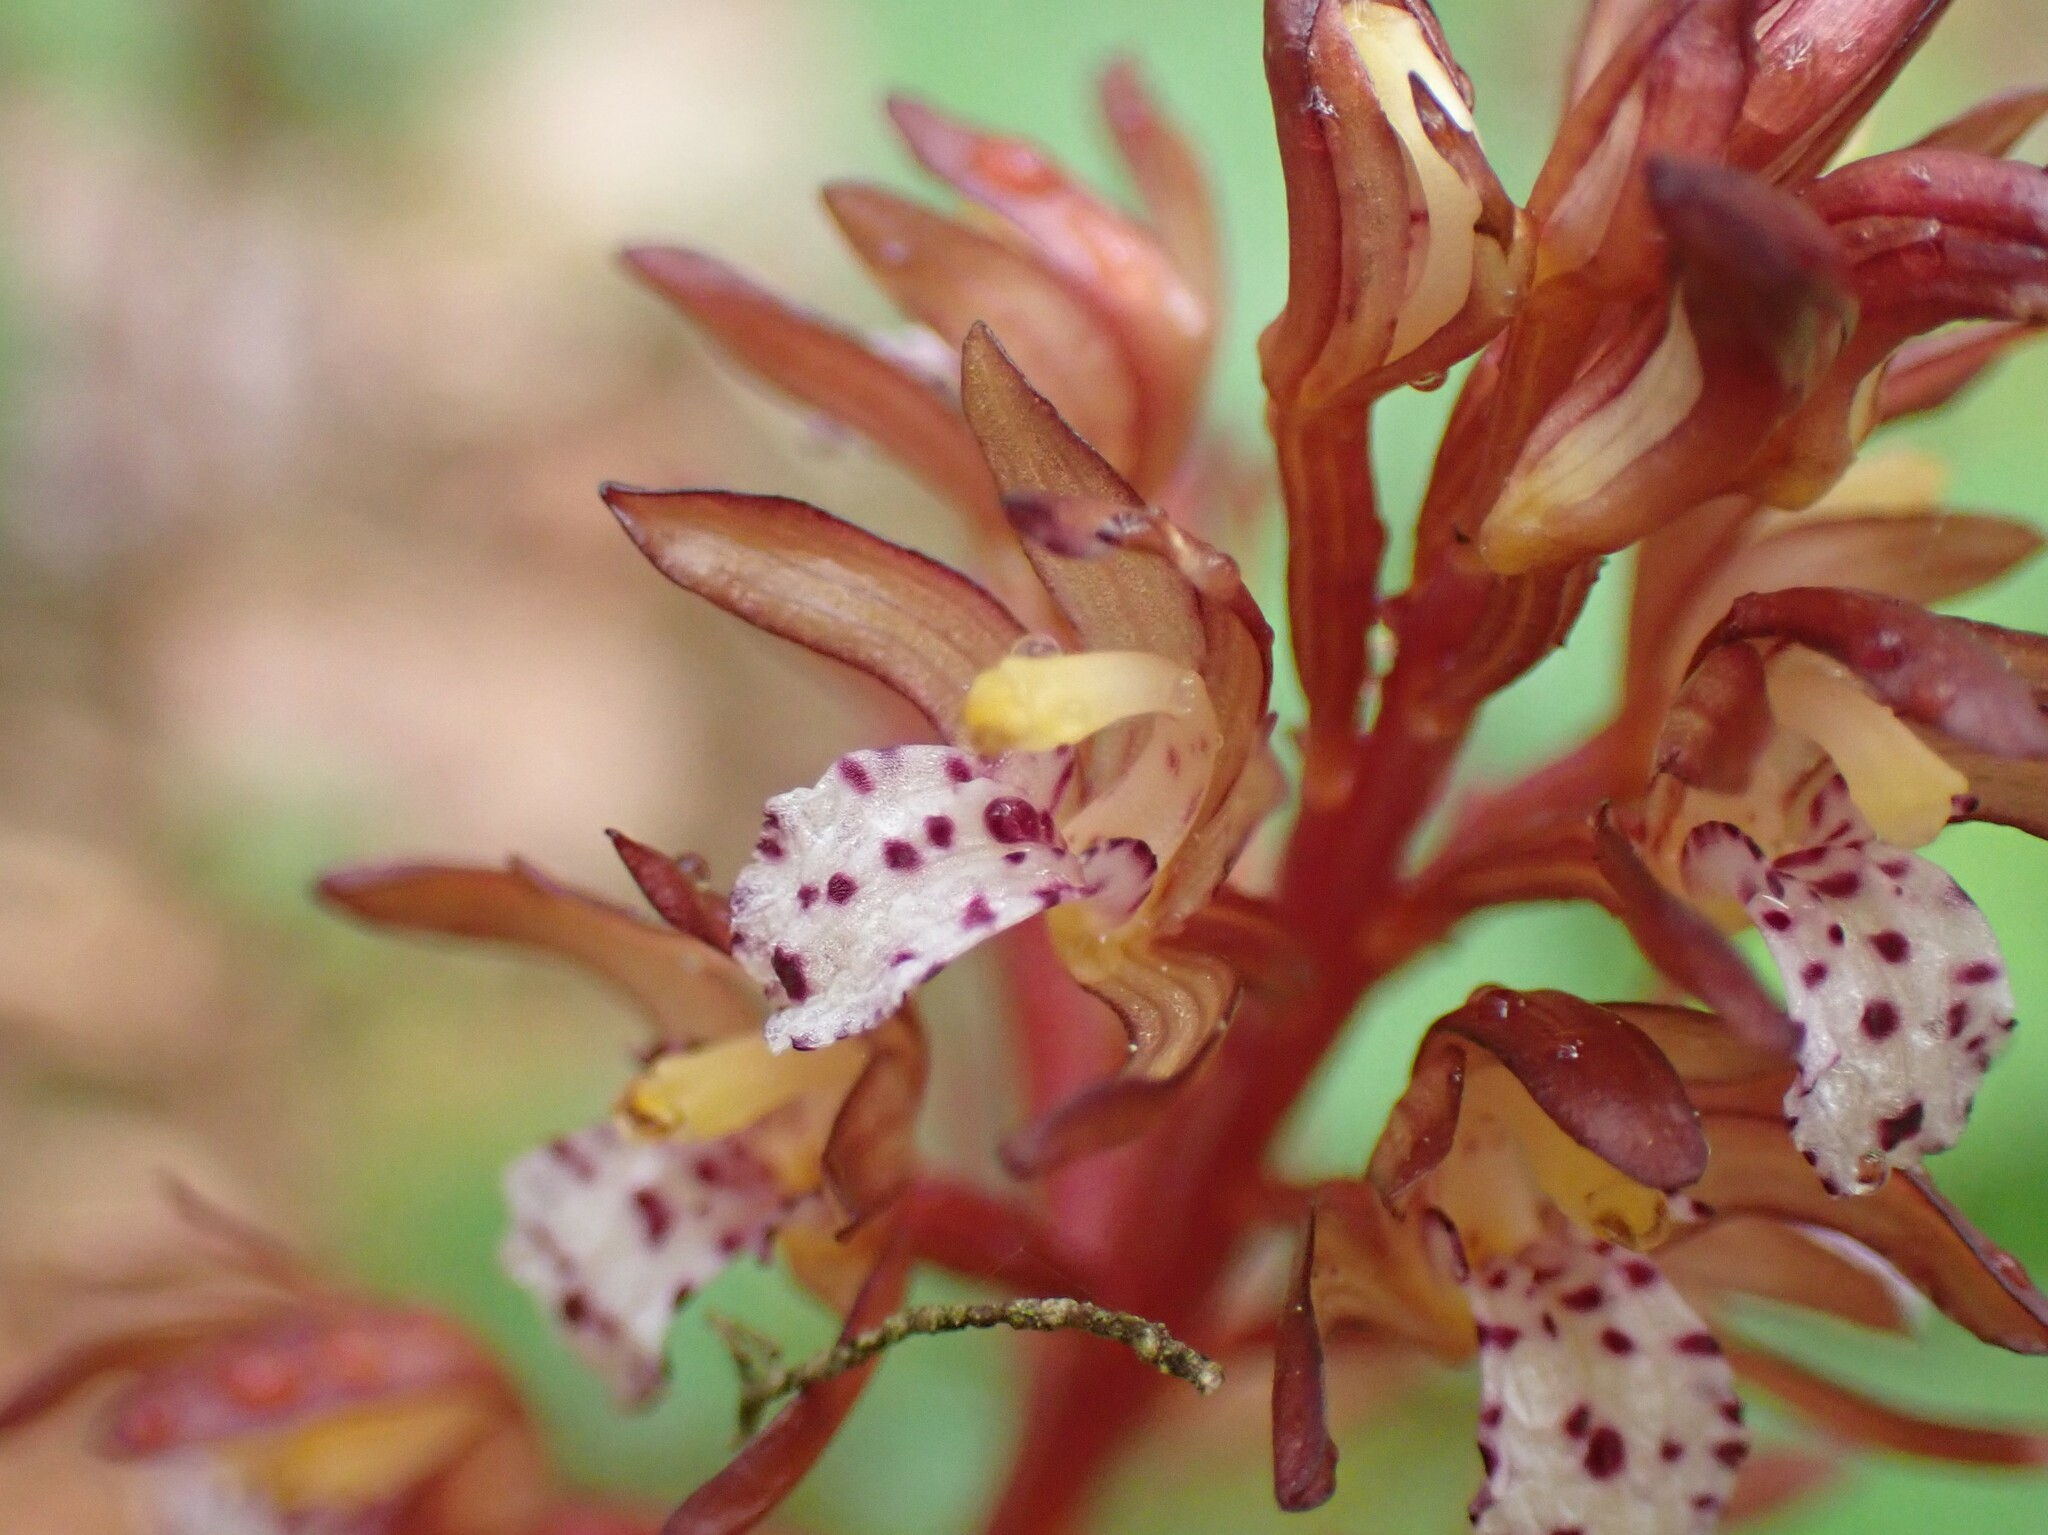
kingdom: Plantae
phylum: Tracheophyta
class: Liliopsida
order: Asparagales
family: Orchidaceae
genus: Corallorhiza
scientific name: Corallorhiza maculata
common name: Spotted coralroot
